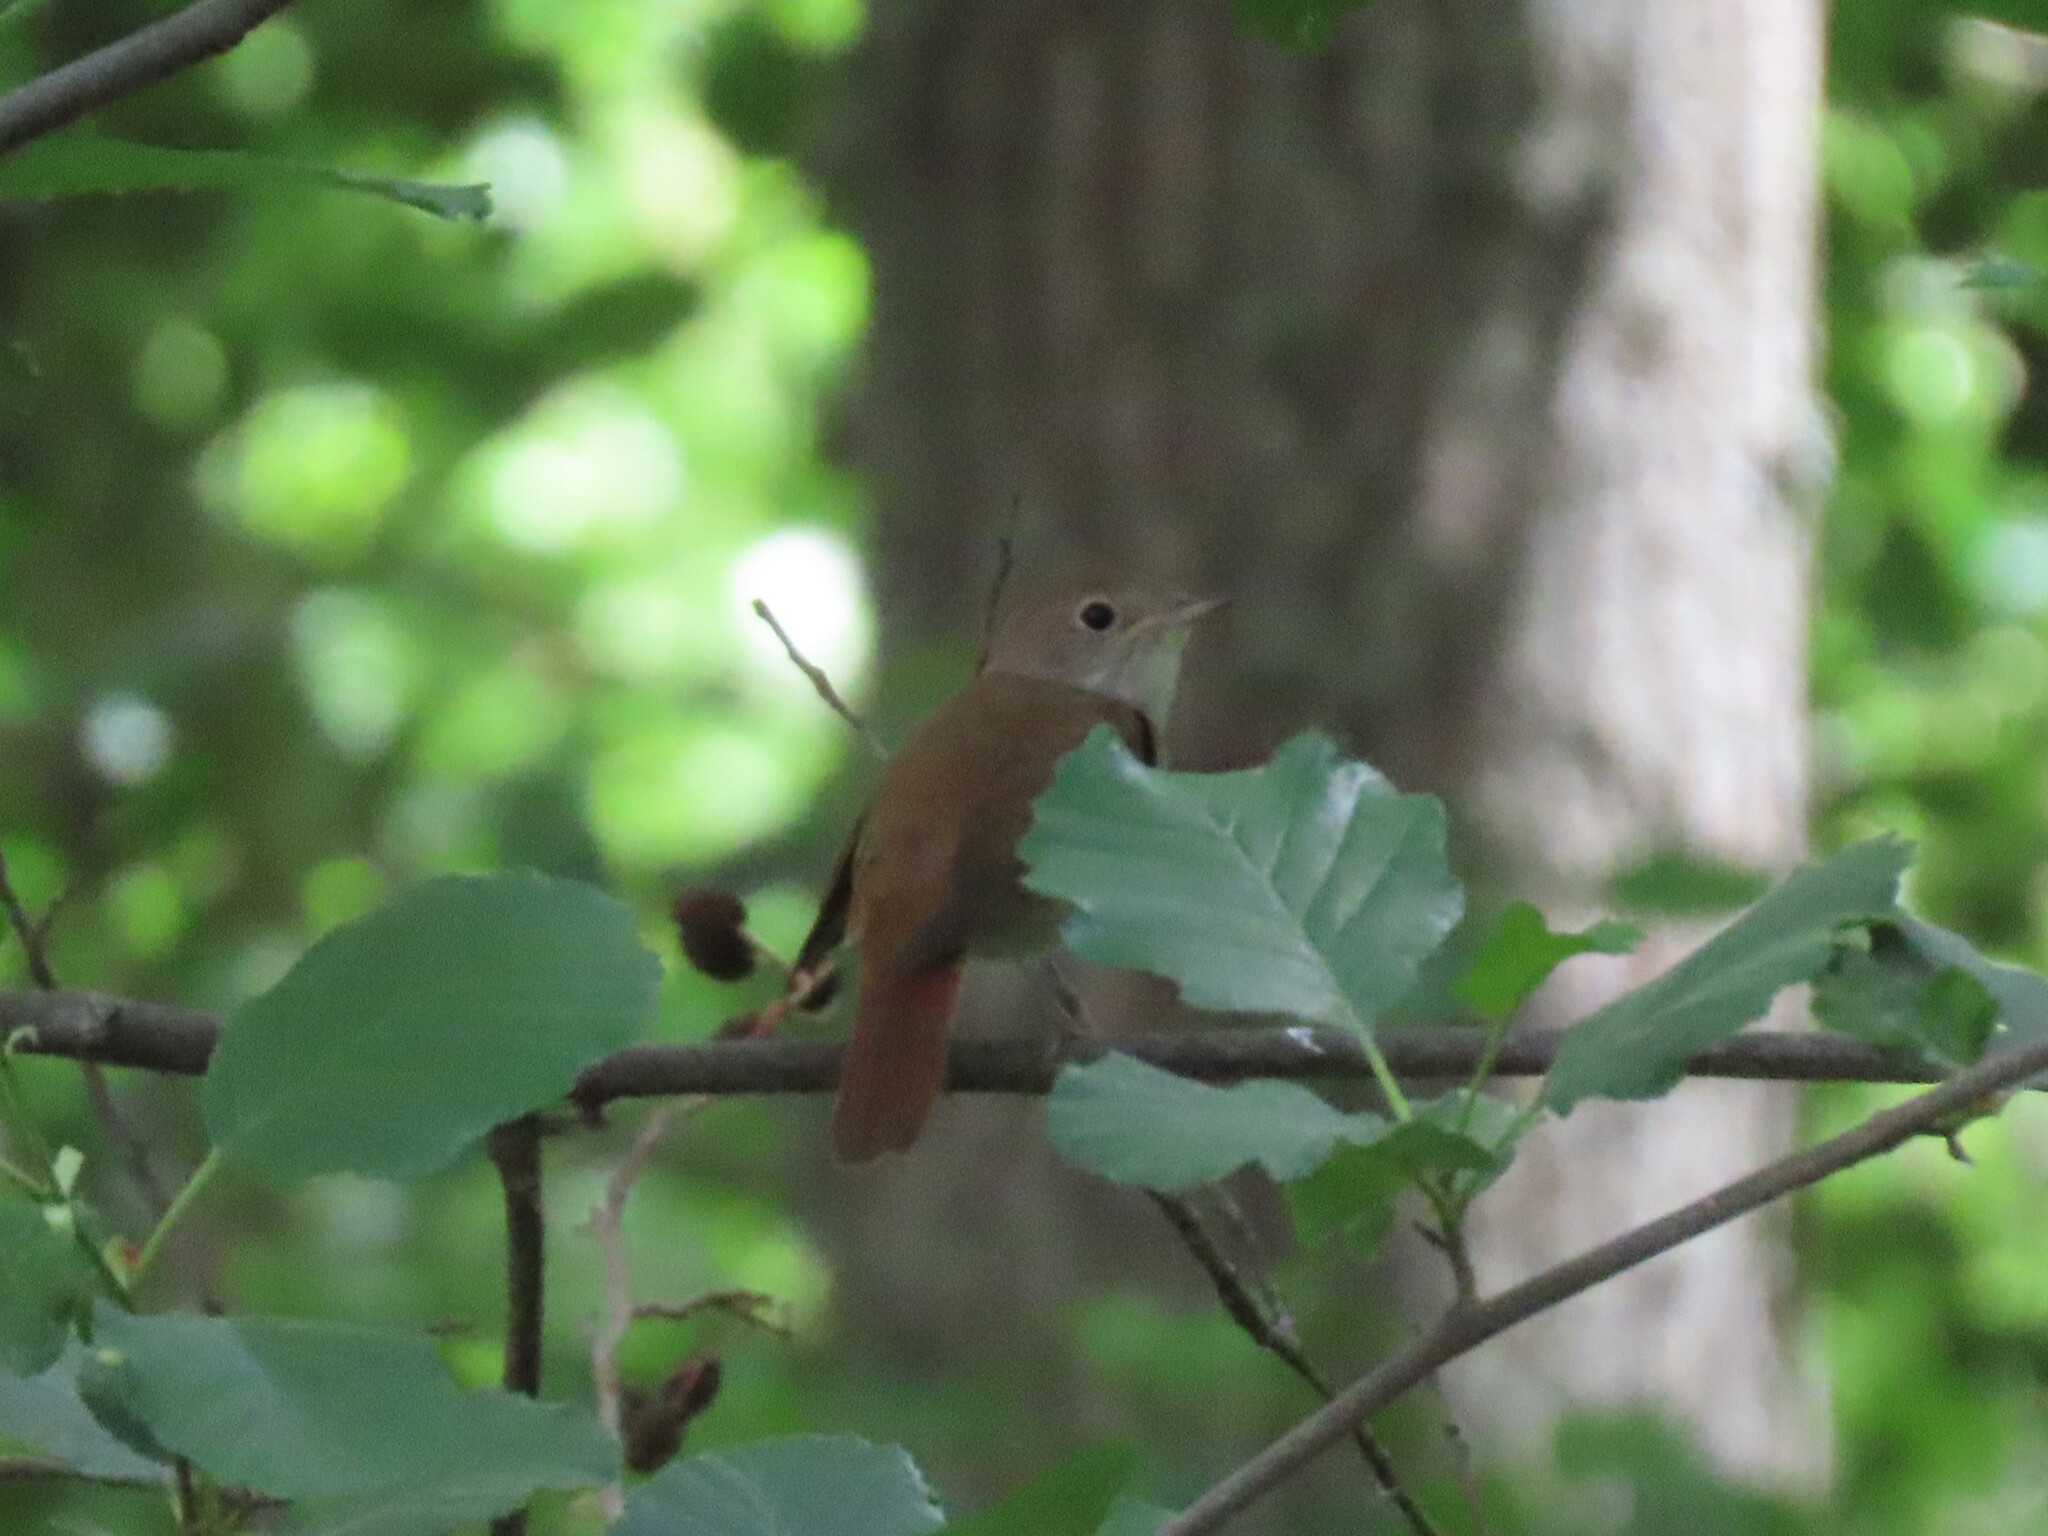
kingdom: Animalia
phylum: Chordata
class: Aves
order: Passeriformes
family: Muscicapidae
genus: Luscinia
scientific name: Luscinia megarhynchos
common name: Common nightingale
